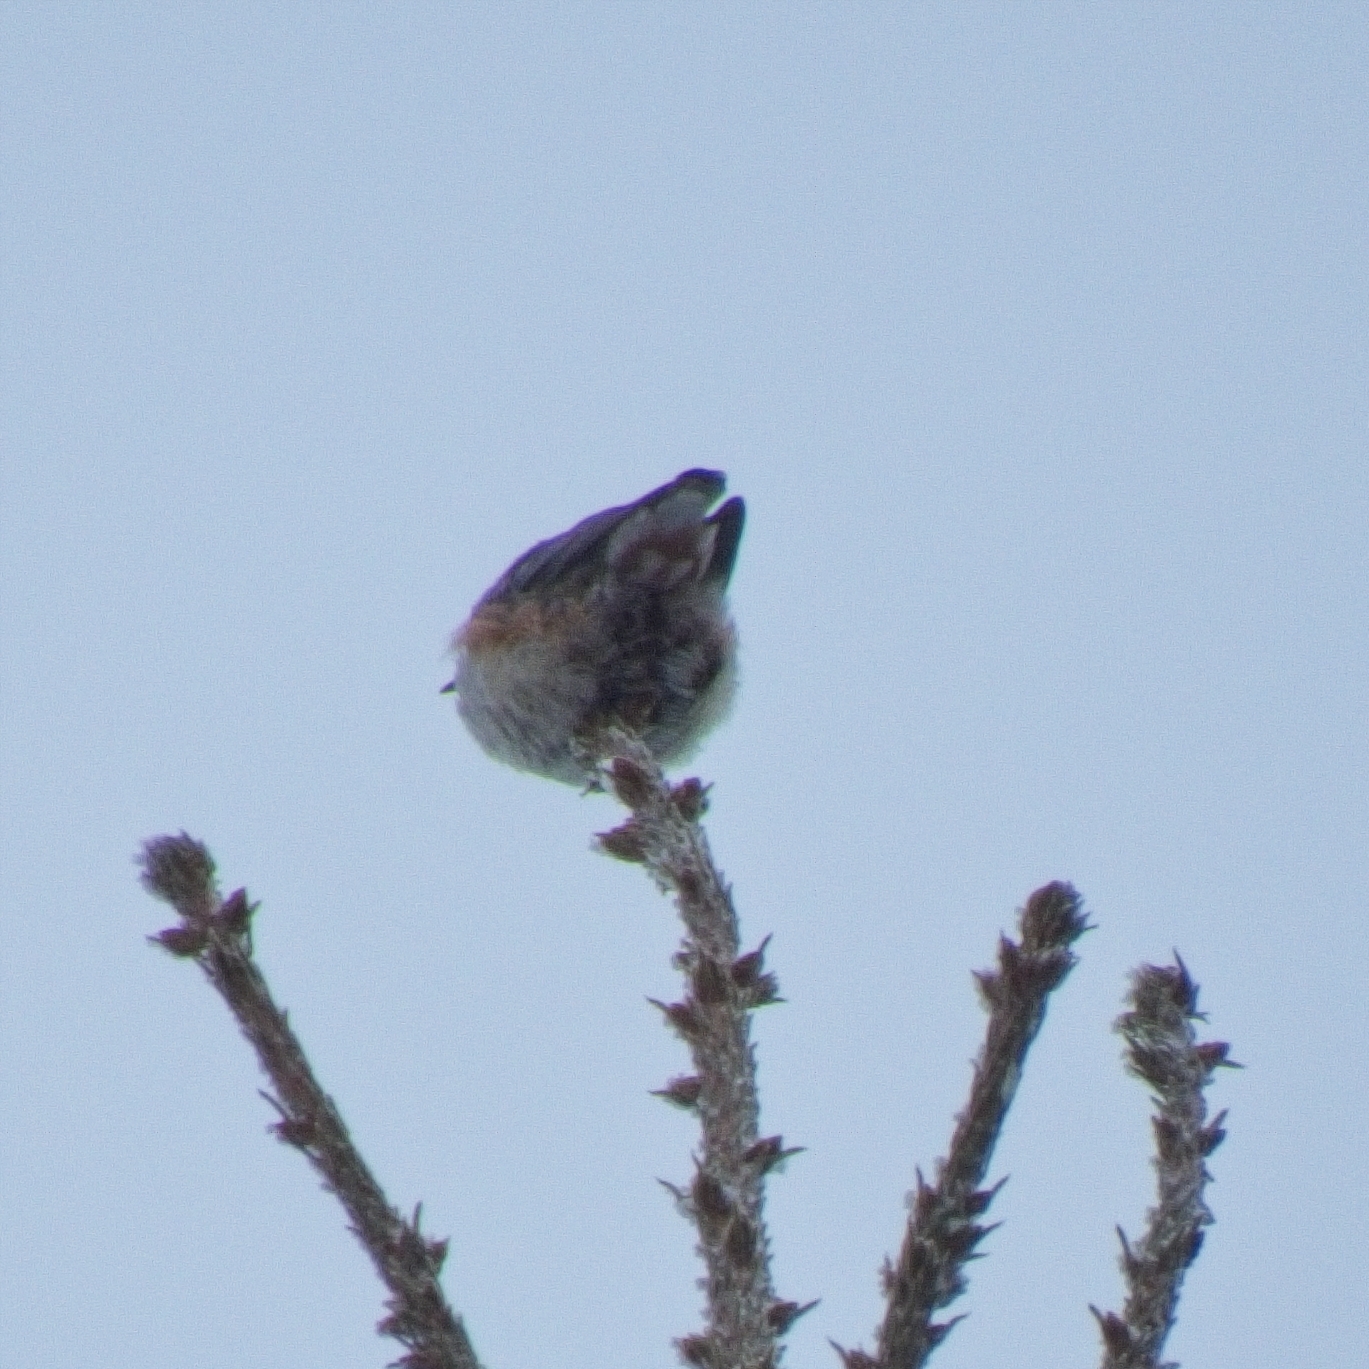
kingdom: Animalia
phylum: Chordata
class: Aves
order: Passeriformes
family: Sittidae
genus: Sitta
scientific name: Sitta europaea
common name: Eurasian nuthatch
